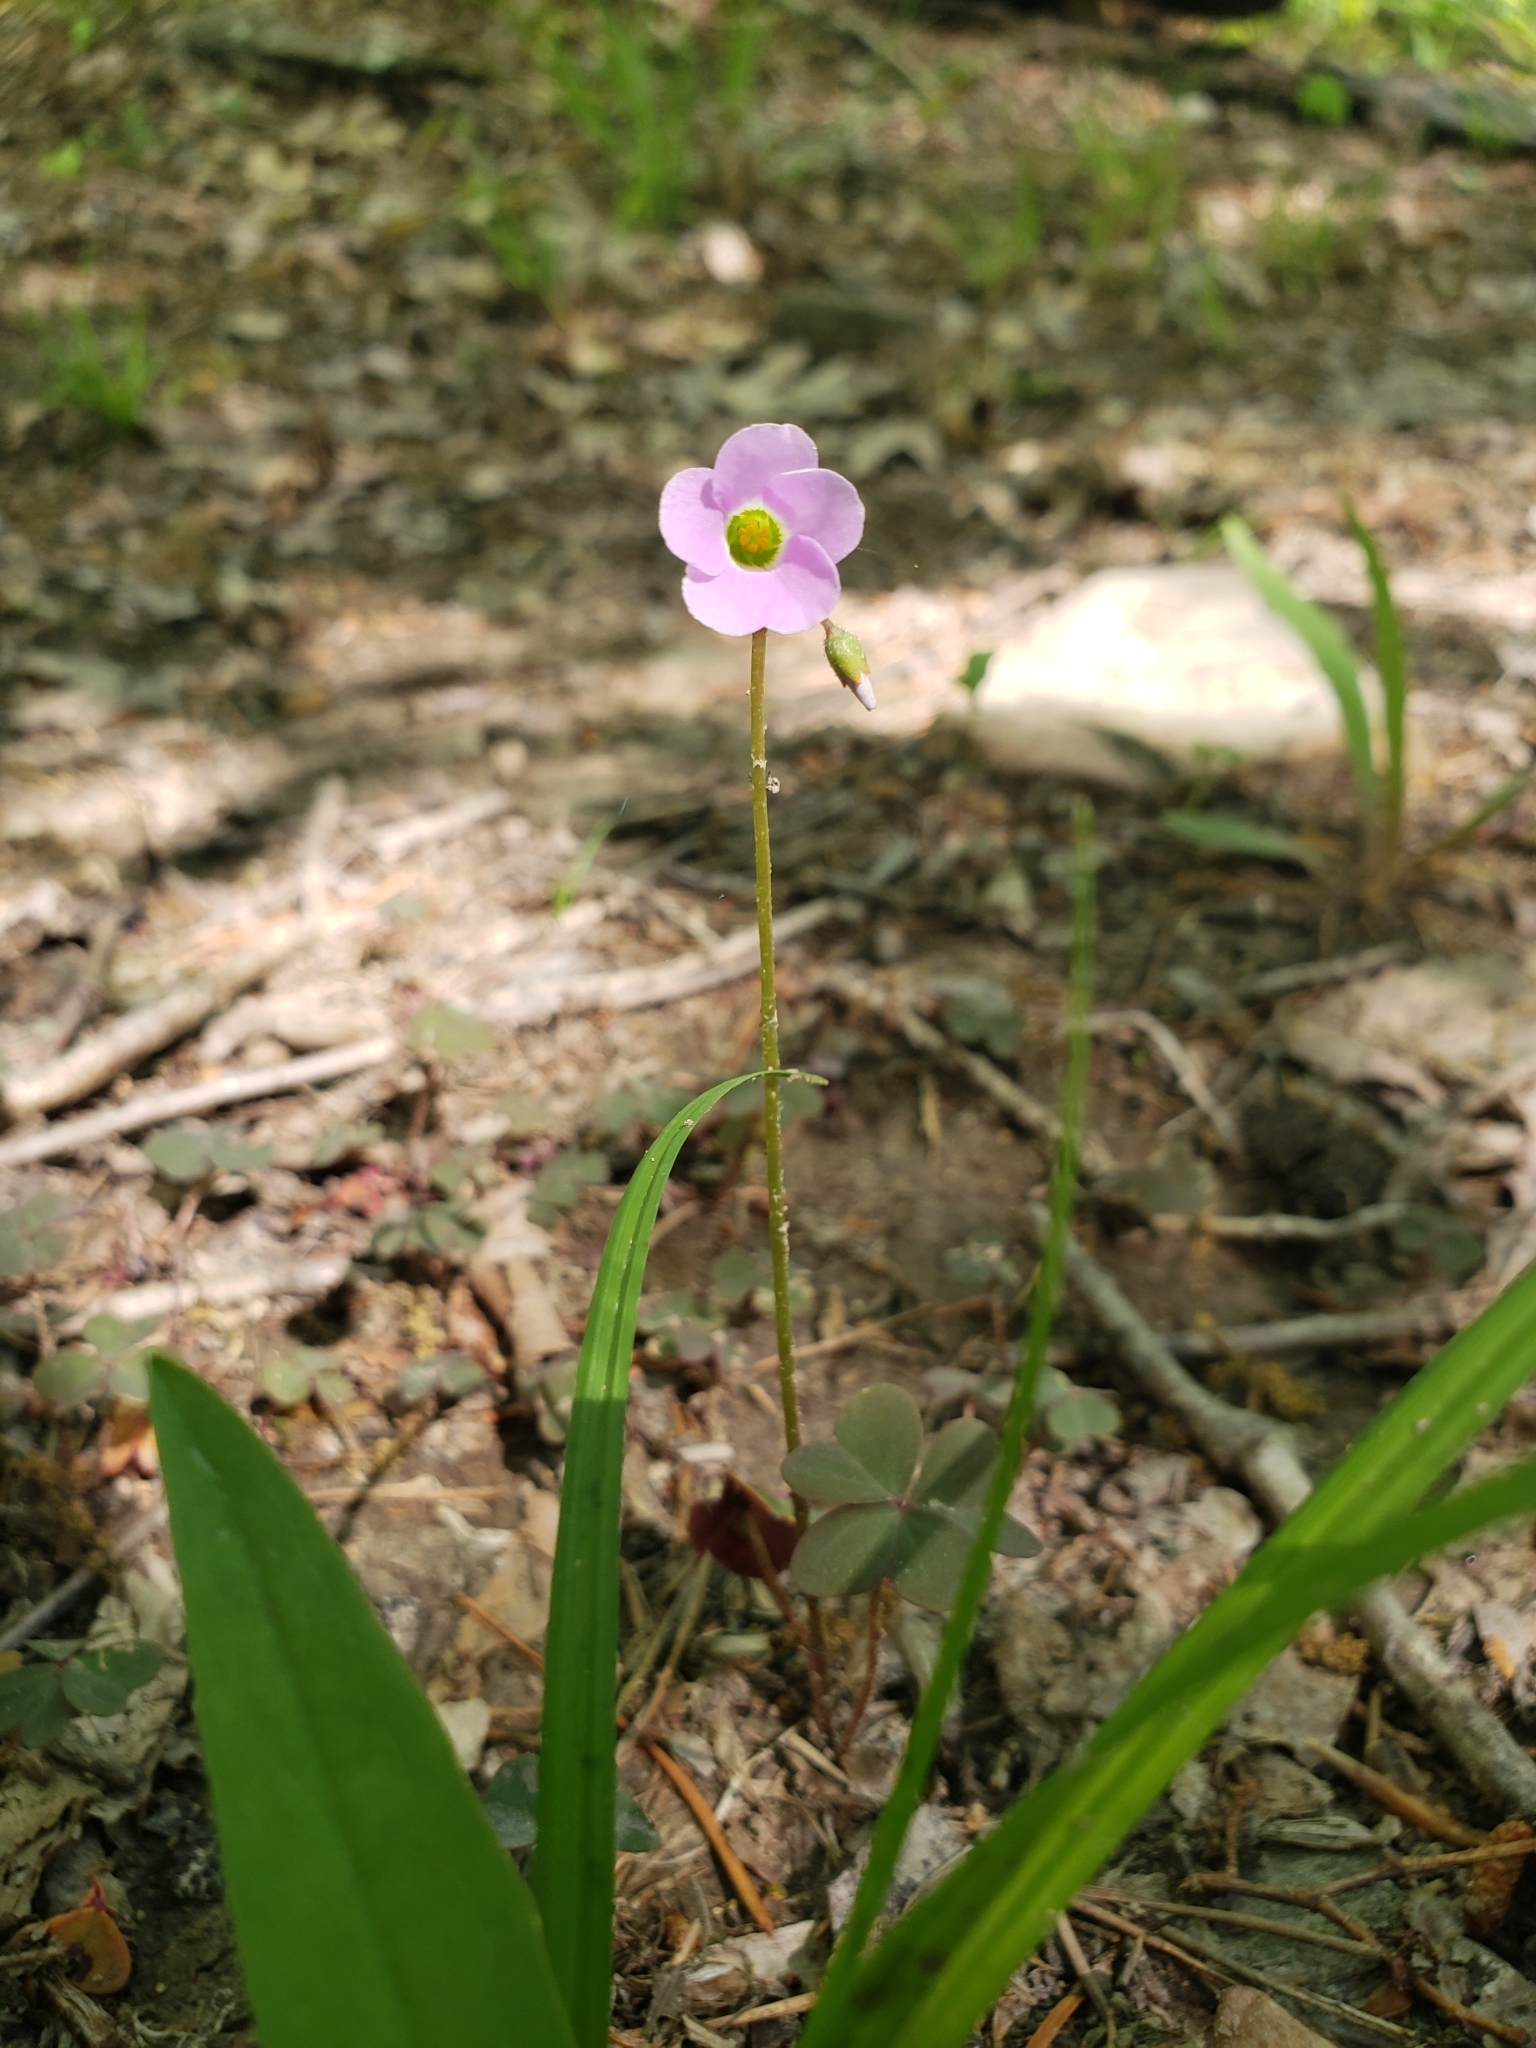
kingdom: Plantae
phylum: Tracheophyta
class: Magnoliopsida
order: Oxalidales
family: Oxalidaceae
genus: Oxalis
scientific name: Oxalis violacea
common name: Violet wood-sorrel
